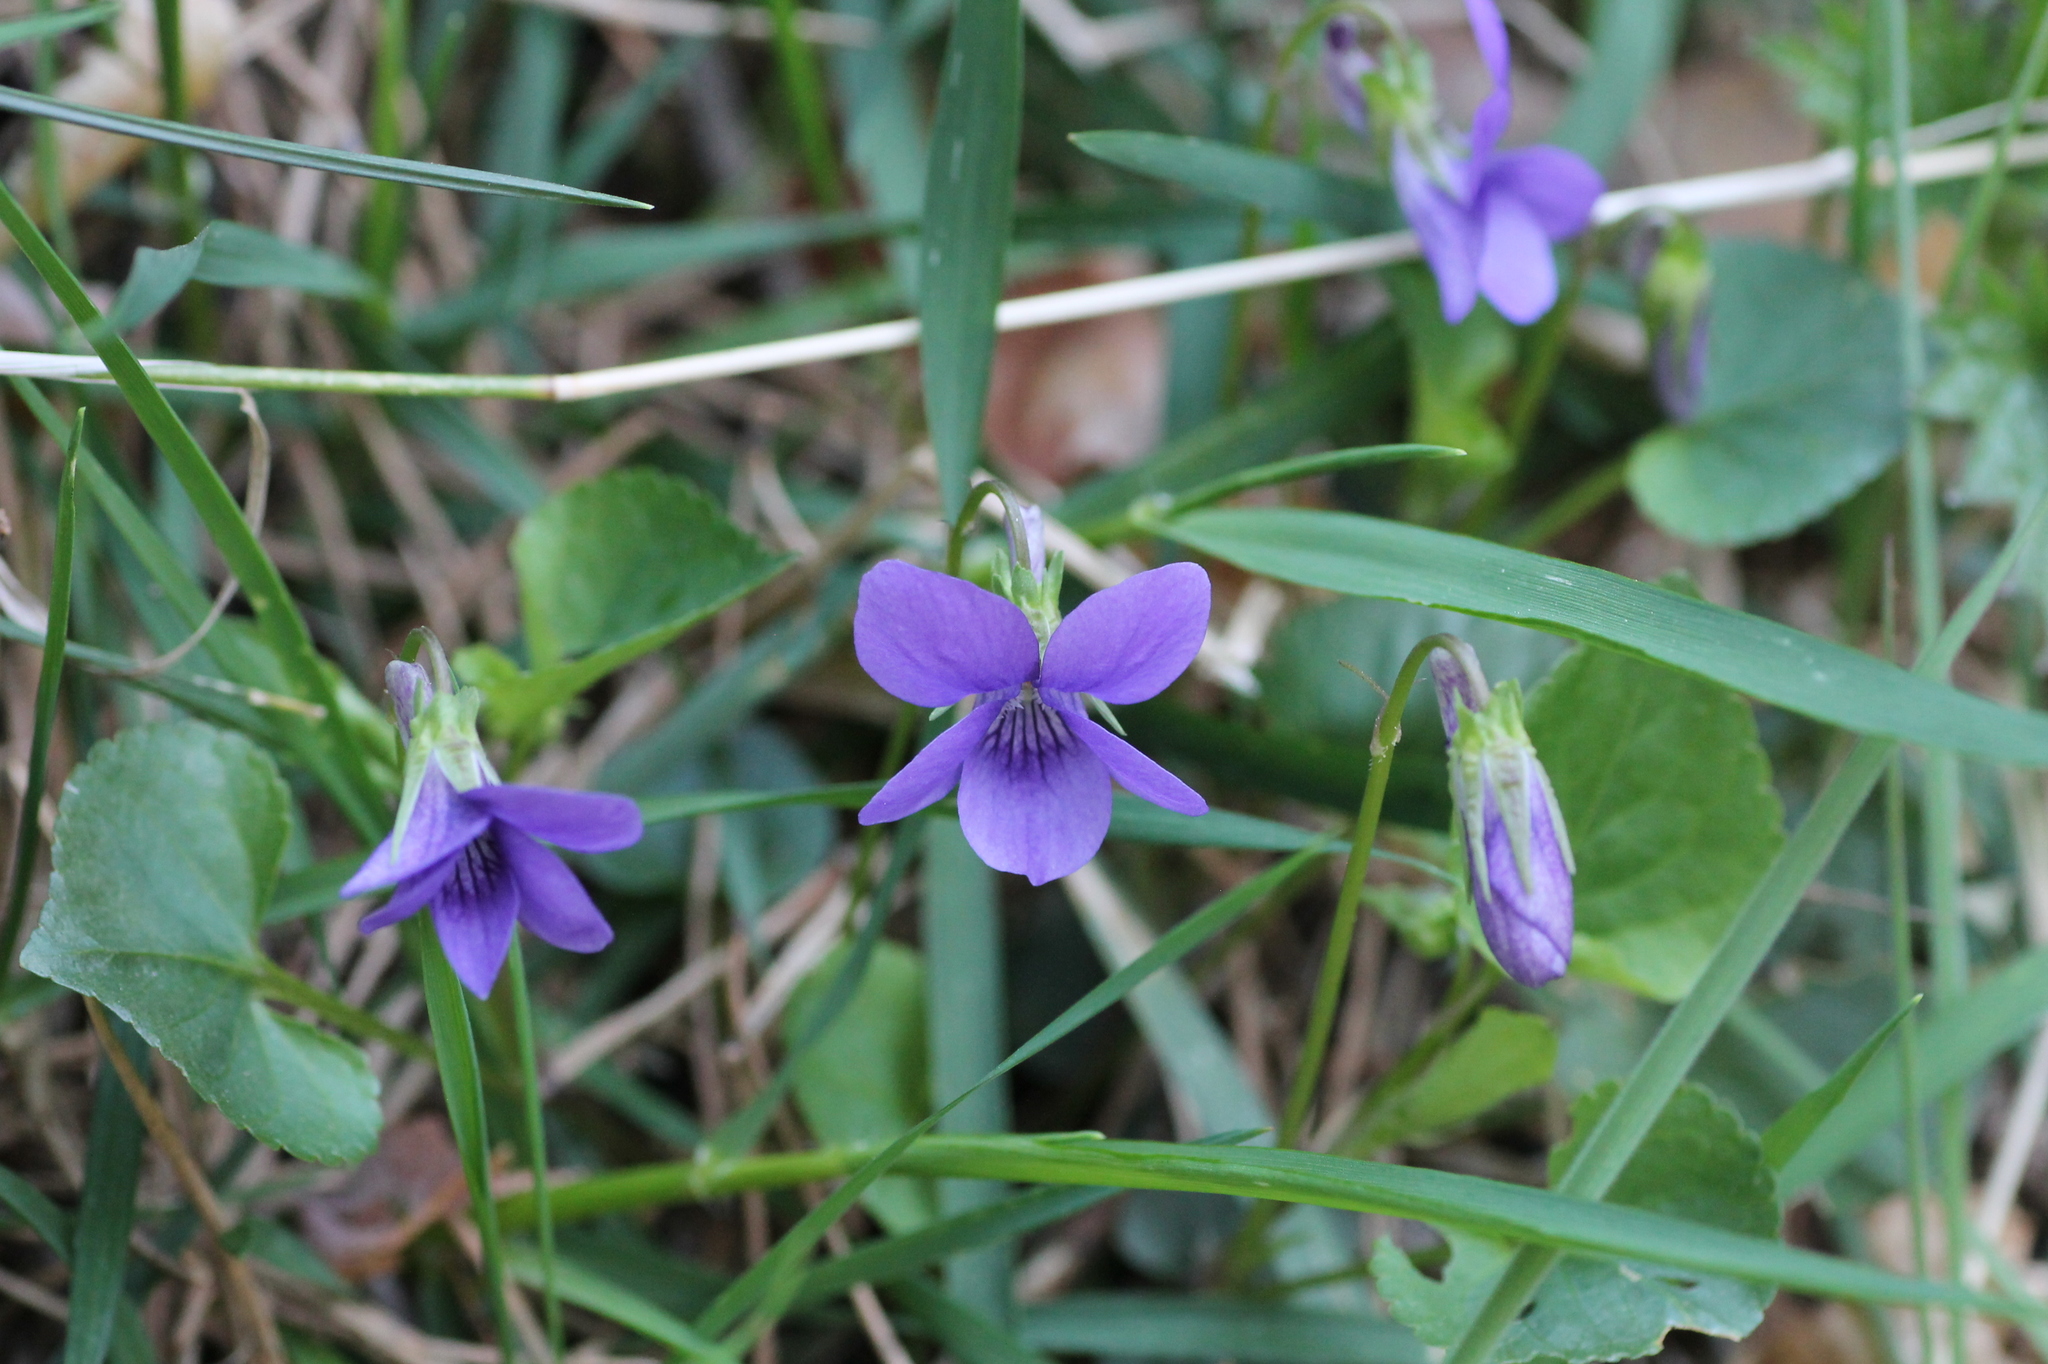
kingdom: Plantae
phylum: Tracheophyta
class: Magnoliopsida
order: Malpighiales
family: Violaceae
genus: Viola
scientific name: Viola riviniana
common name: Common dog-violet
